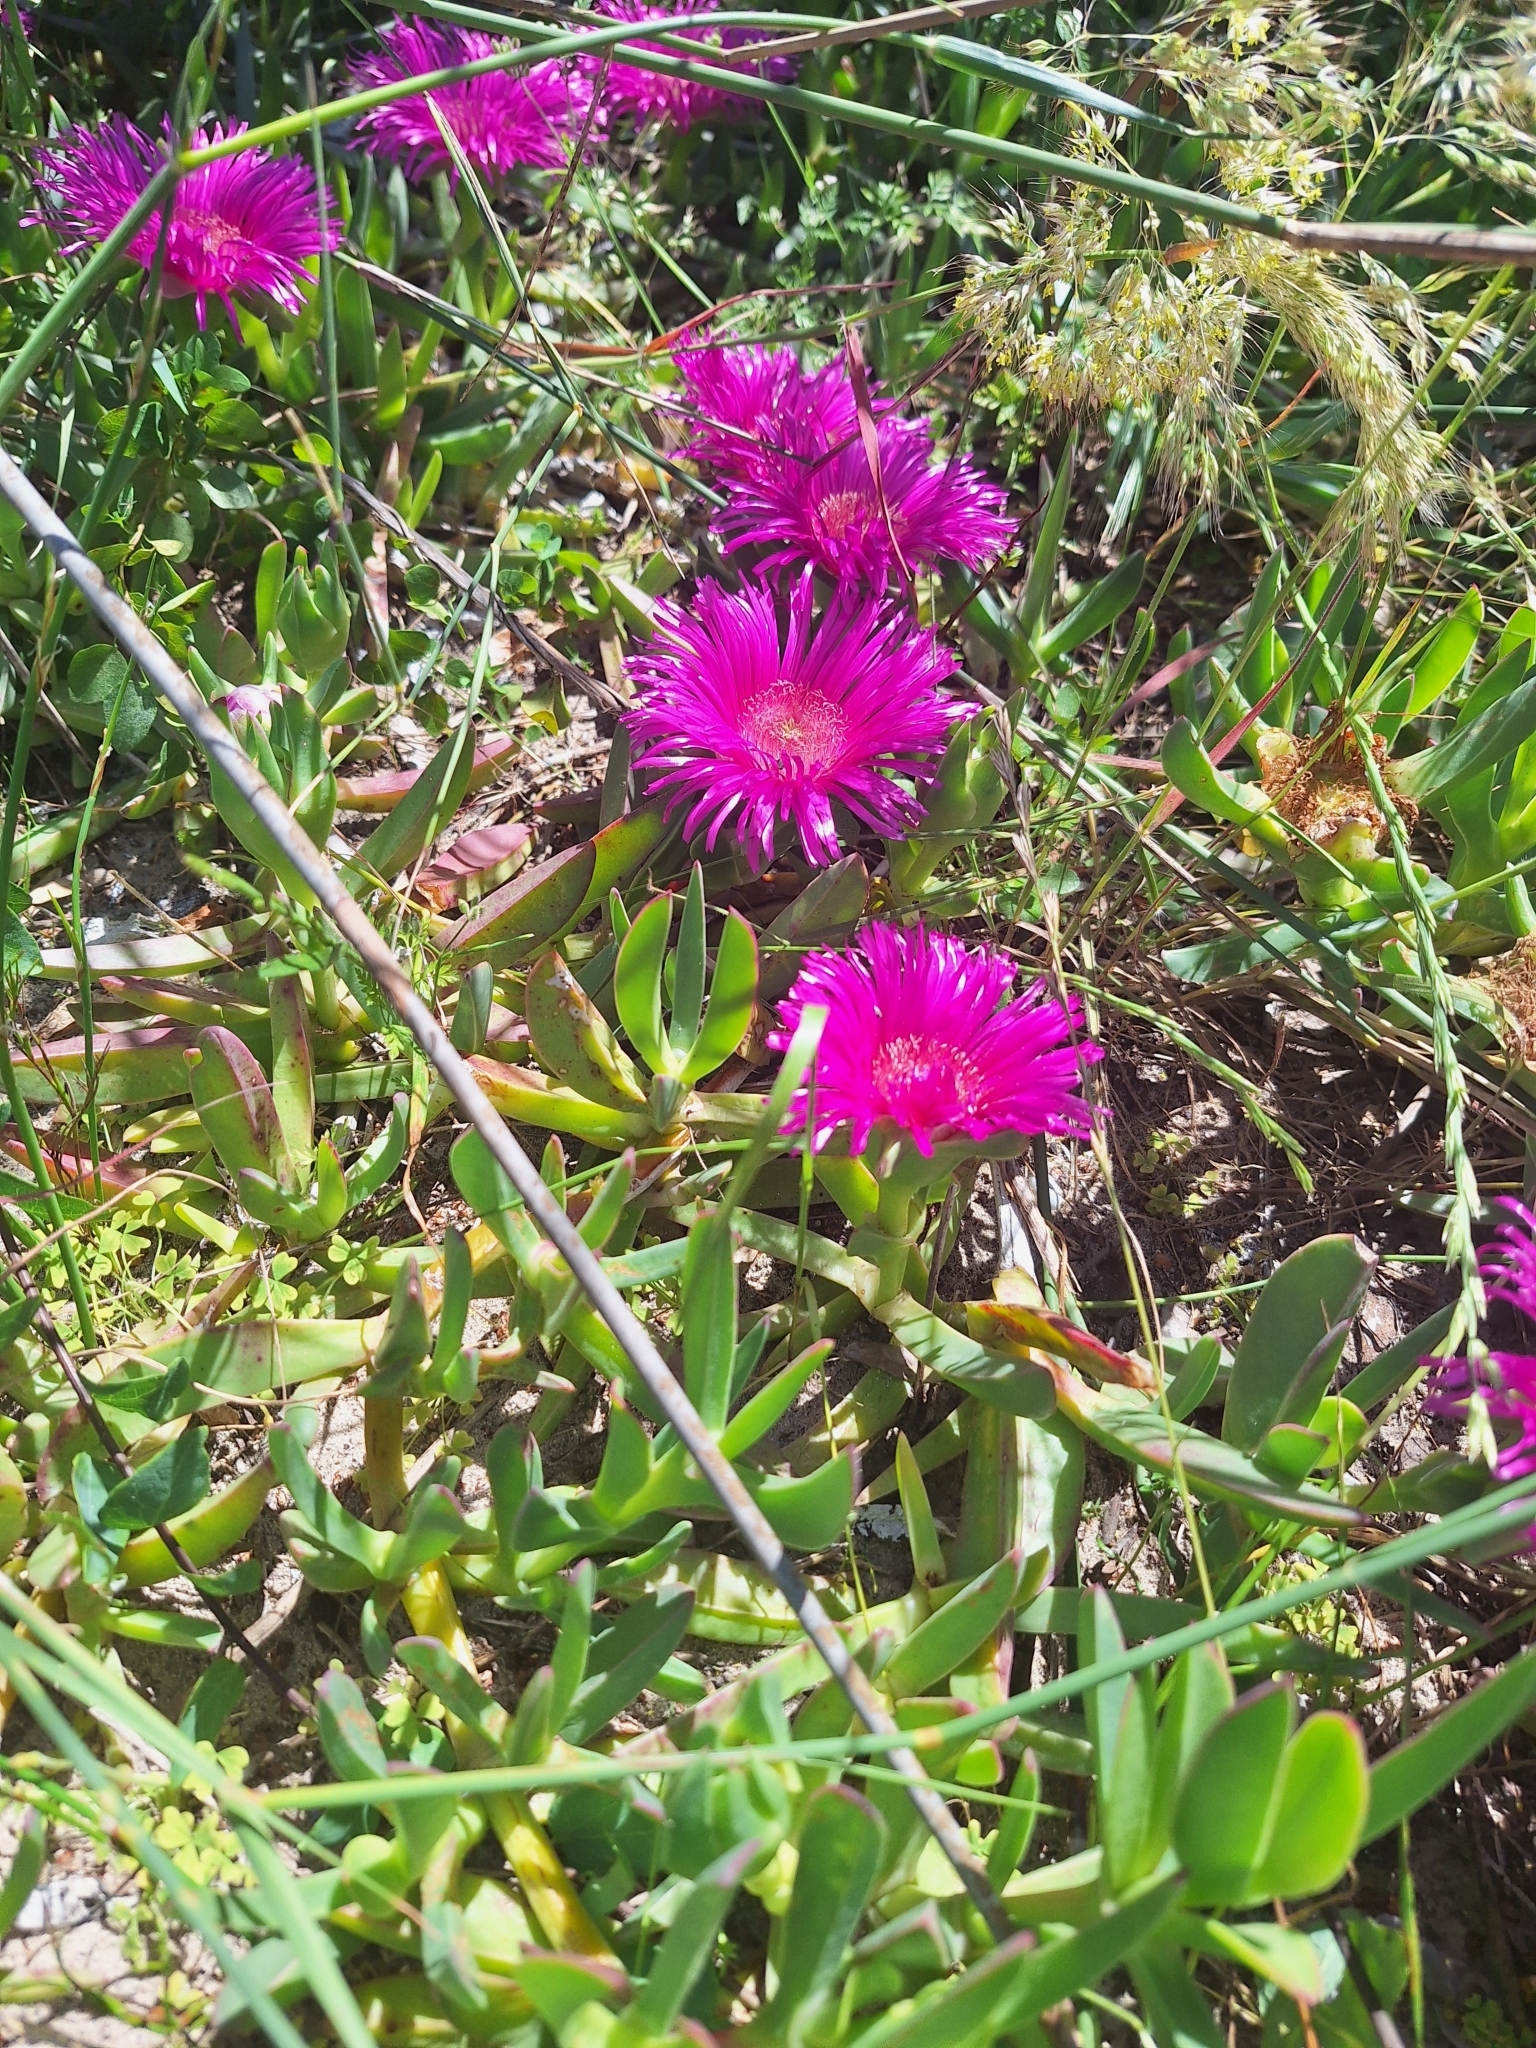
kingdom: Plantae
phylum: Tracheophyta
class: Magnoliopsida
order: Caryophyllales
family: Aizoaceae
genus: Carpobrotus
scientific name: Carpobrotus acinaciformis
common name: Sally-my-handsome
